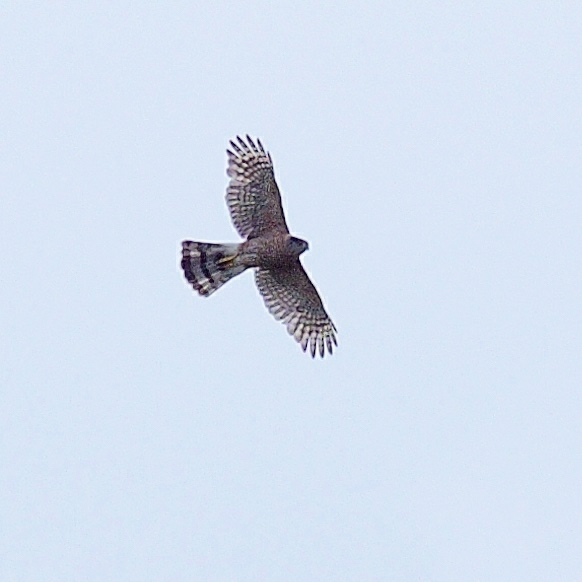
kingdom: Animalia
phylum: Chordata
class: Aves
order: Accipitriformes
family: Accipitridae
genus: Accipiter
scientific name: Accipiter cooperii
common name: Cooper's hawk
